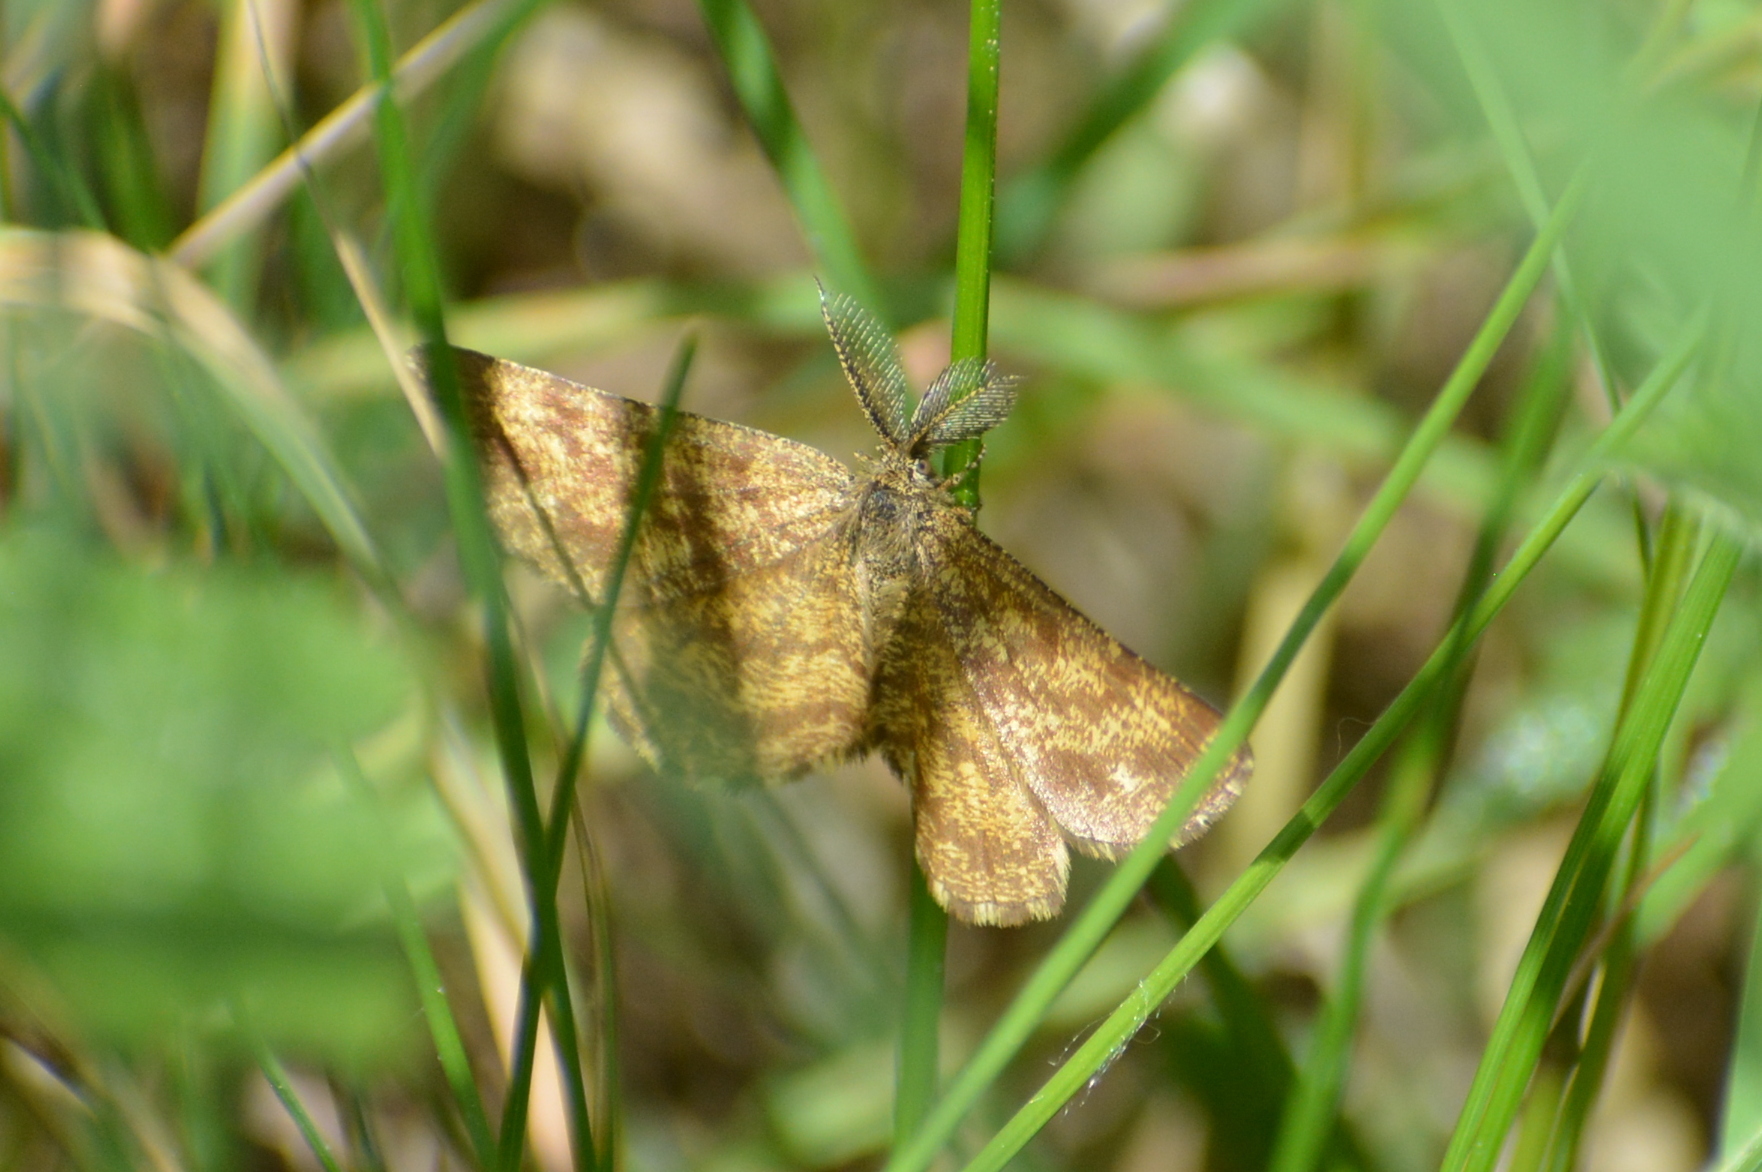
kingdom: Animalia
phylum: Arthropoda
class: Insecta
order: Lepidoptera
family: Geometridae
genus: Ematurga
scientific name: Ematurga atomaria
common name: Common heath
